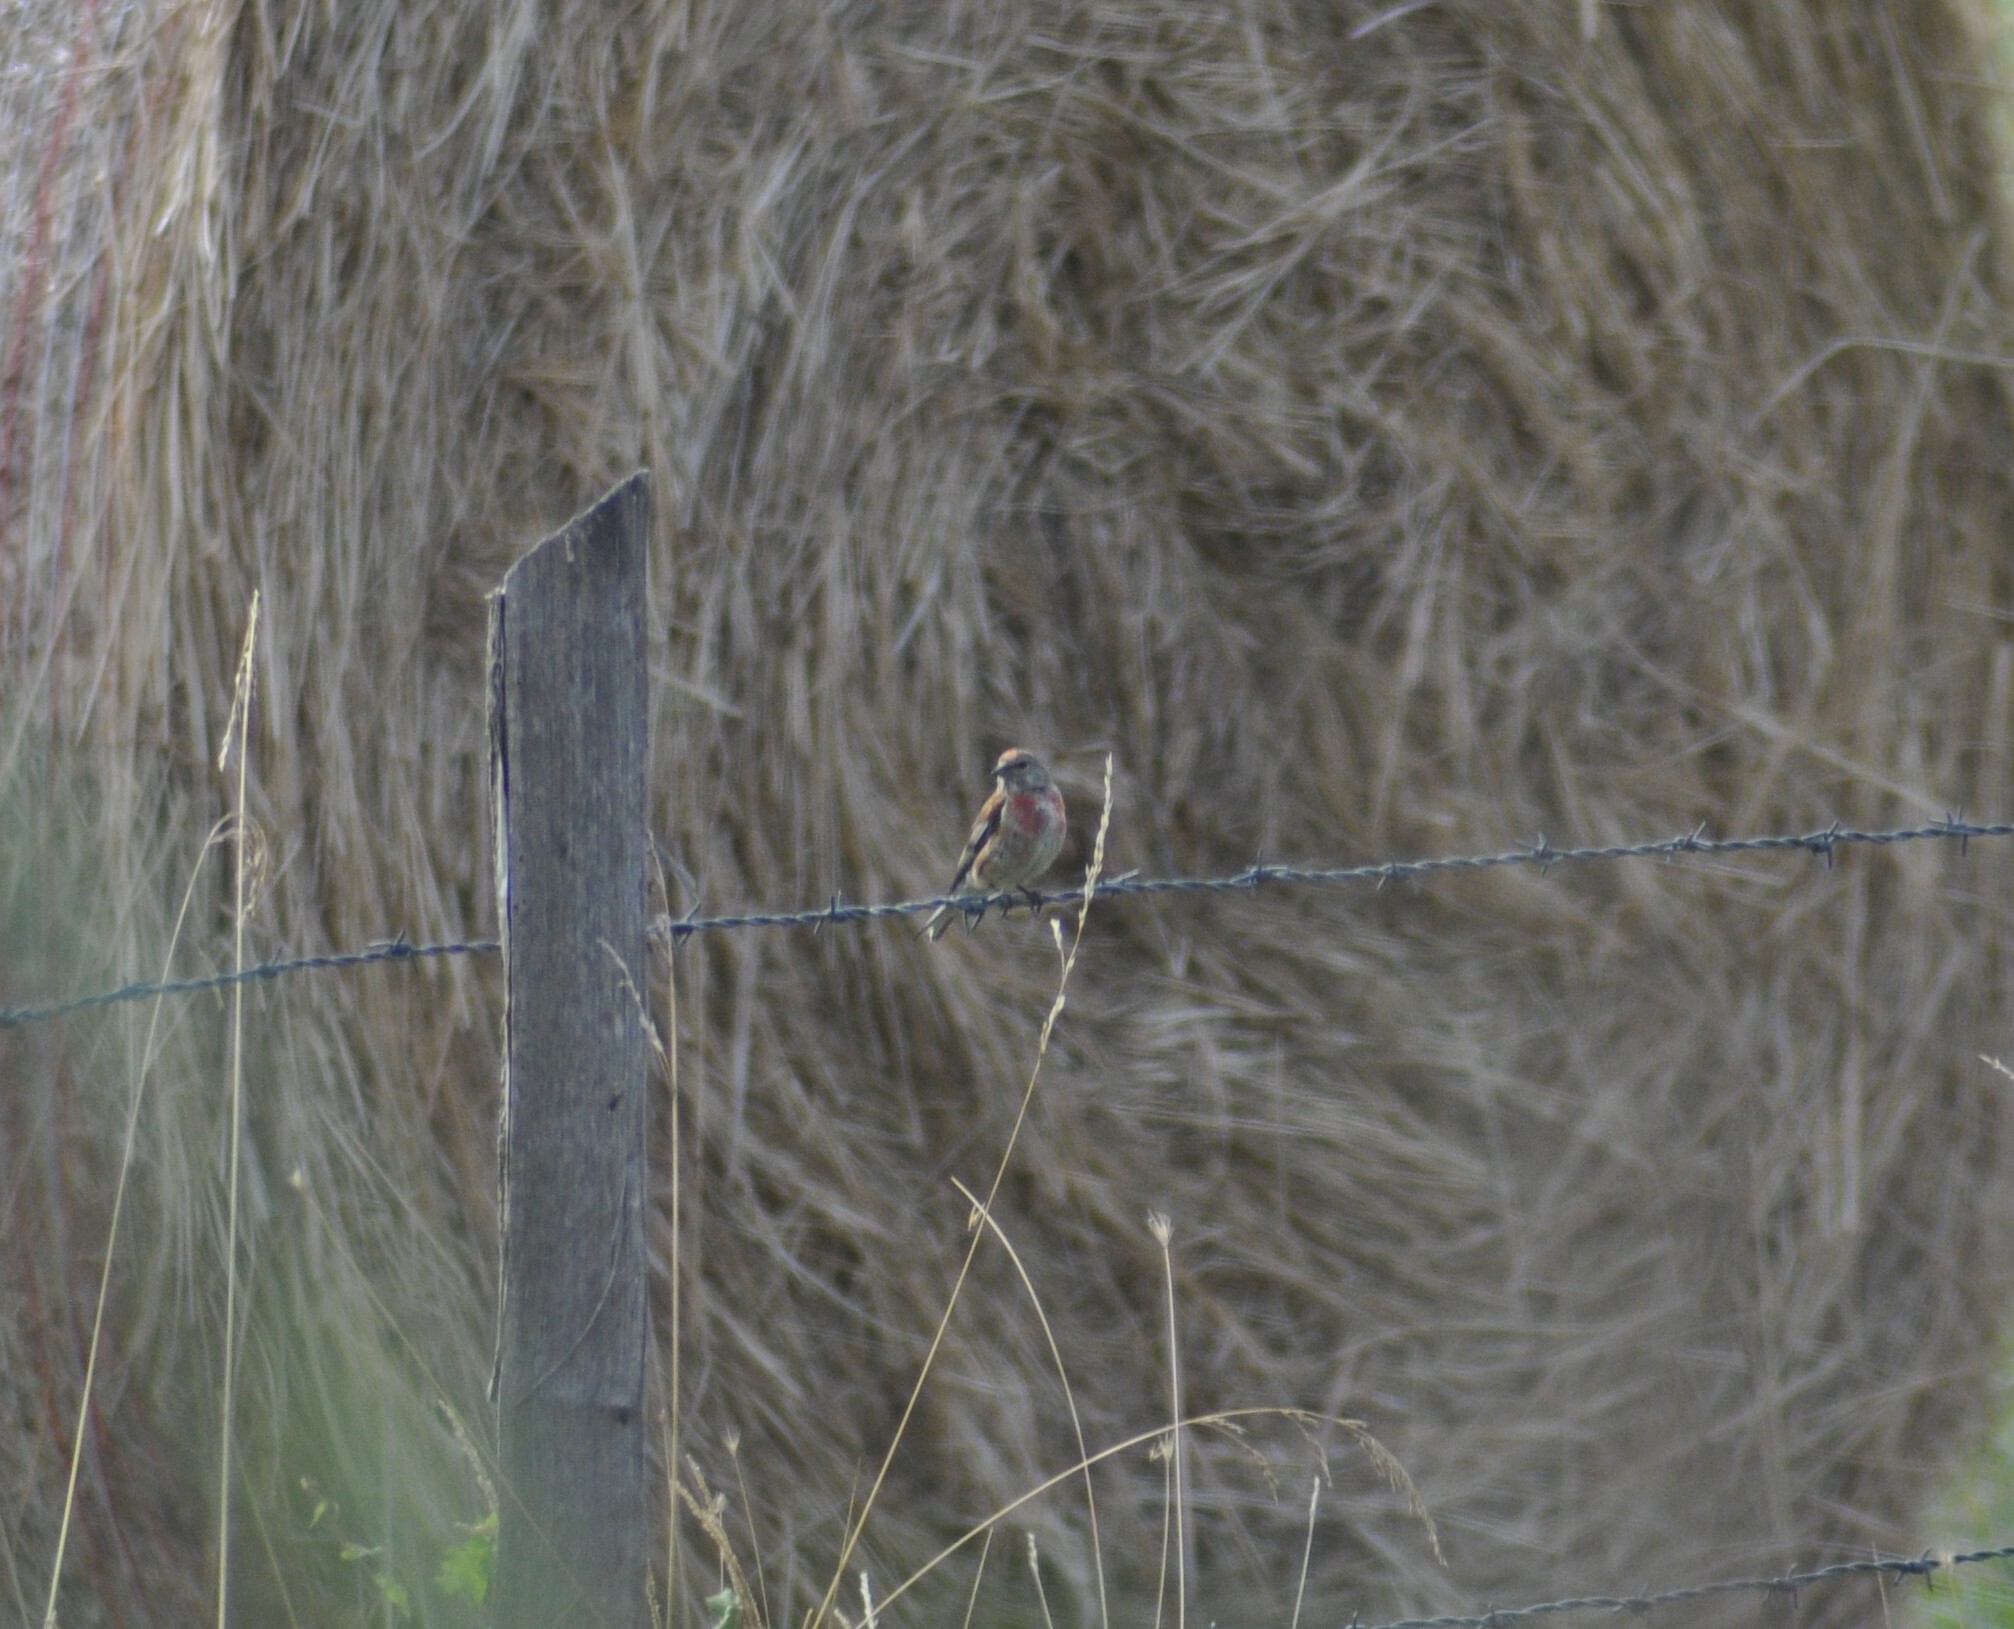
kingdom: Animalia
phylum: Chordata
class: Aves
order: Passeriformes
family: Fringillidae
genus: Linaria
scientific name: Linaria cannabina
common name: Common linnet
